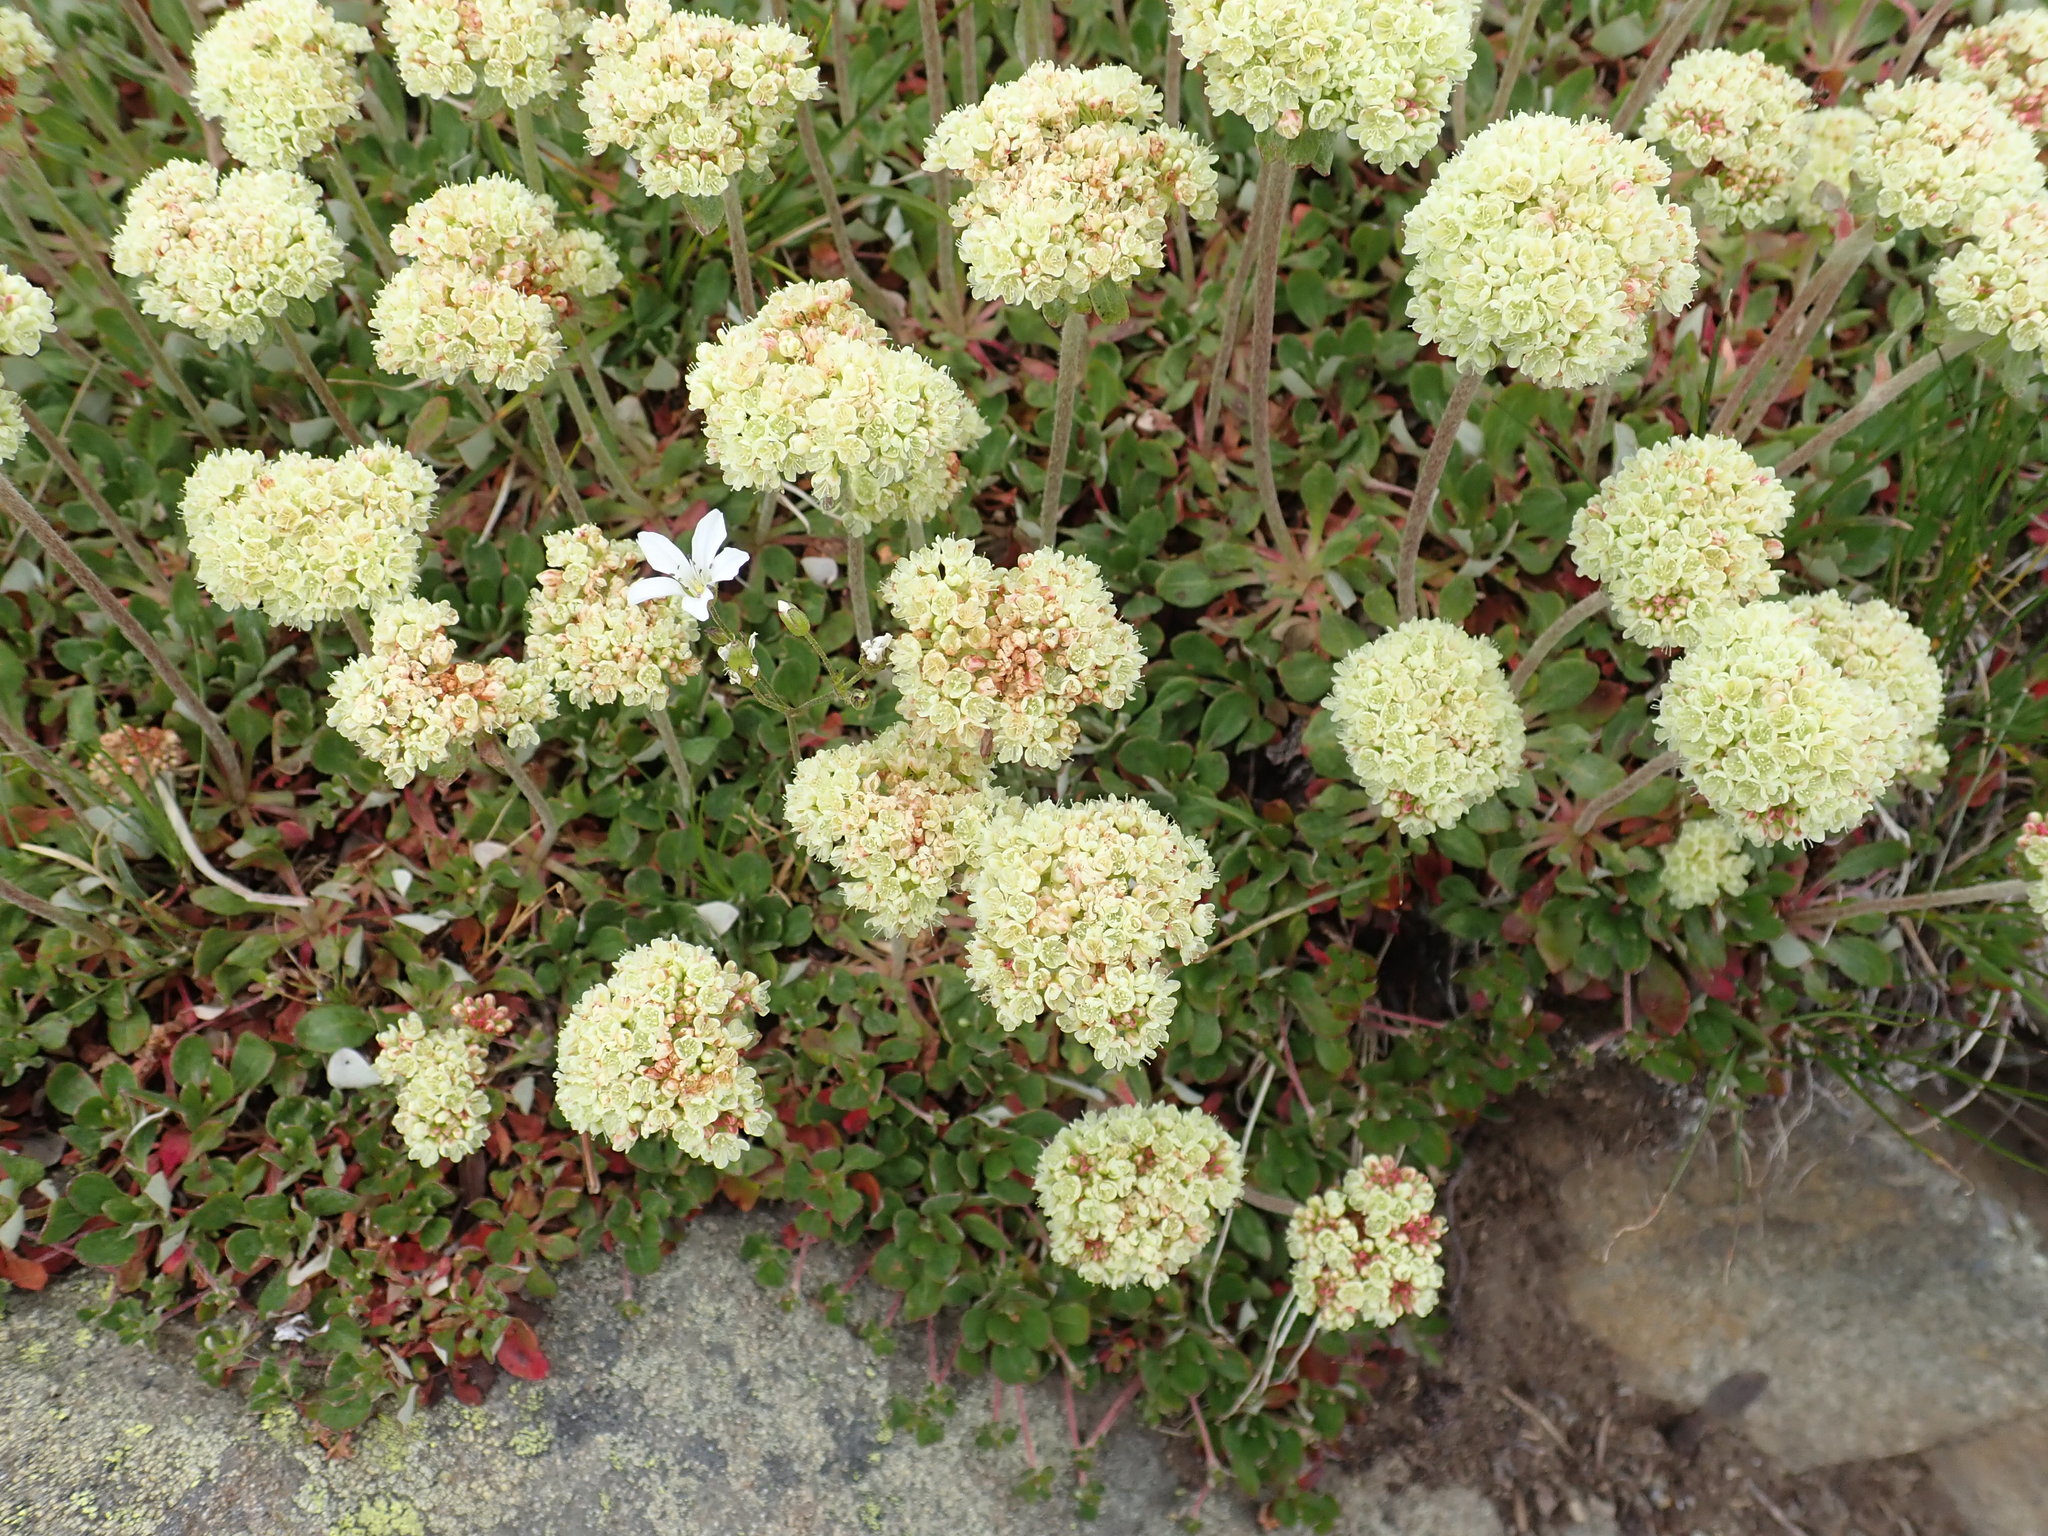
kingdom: Plantae
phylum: Tracheophyta
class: Magnoliopsida
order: Caryophyllales
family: Polygonaceae
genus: Eriogonum
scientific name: Eriogonum umbellatum
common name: Sulfur-buckwheat
